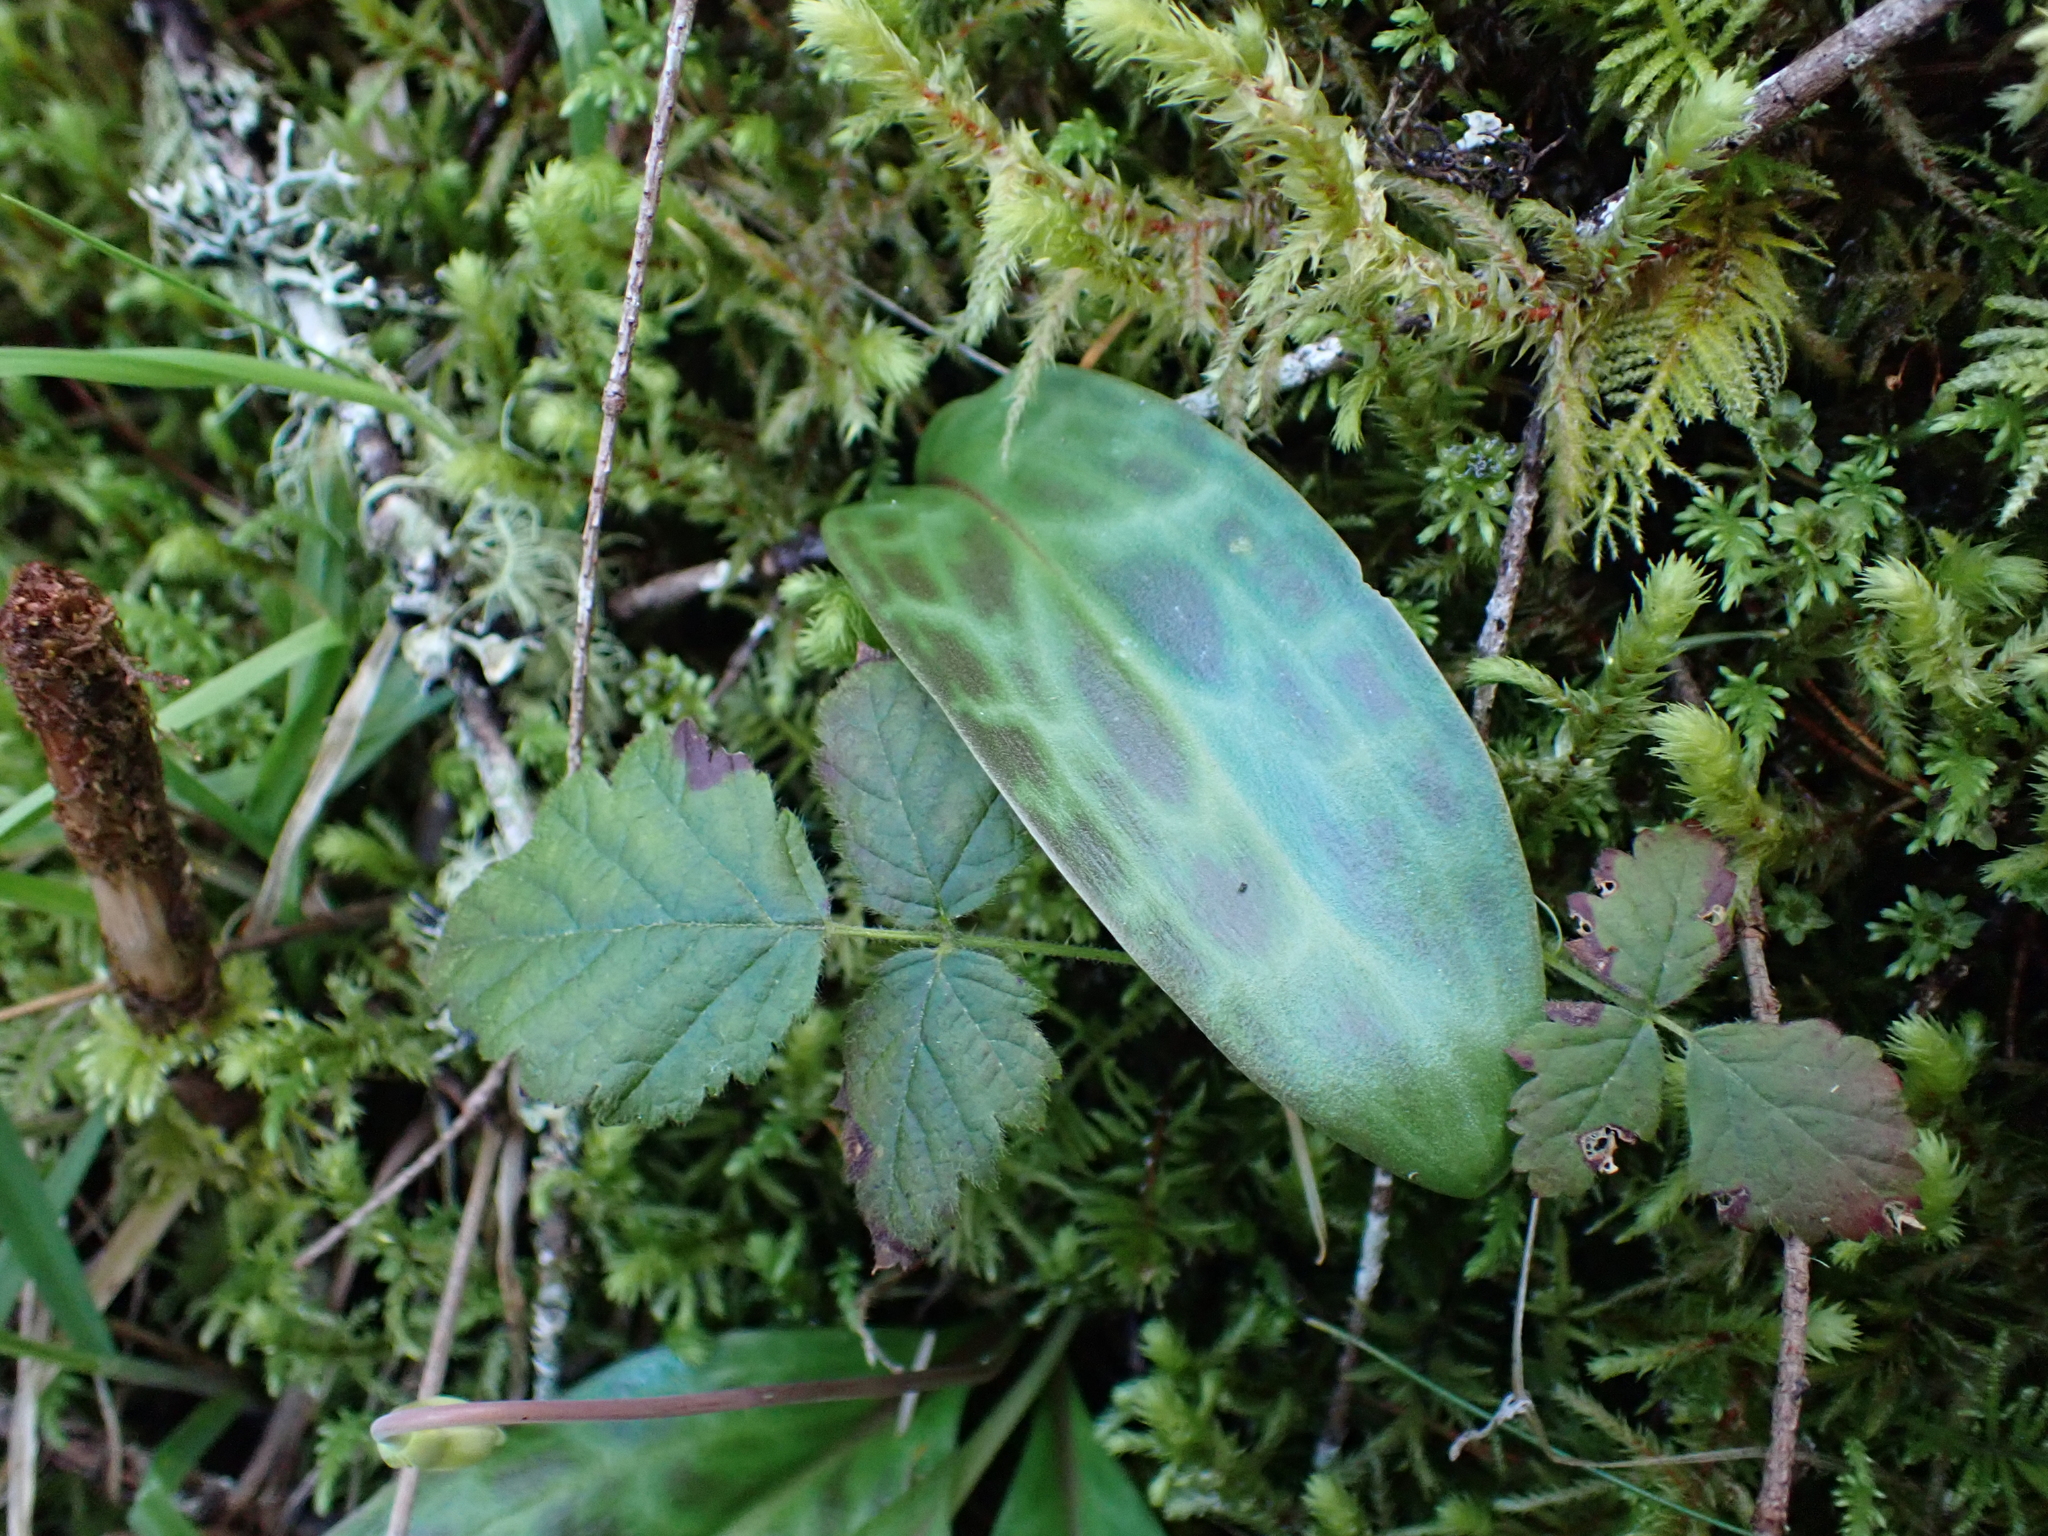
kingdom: Plantae
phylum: Tracheophyta
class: Liliopsida
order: Liliales
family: Liliaceae
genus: Erythronium
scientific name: Erythronium oregonum
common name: Giant adder's-tongue
